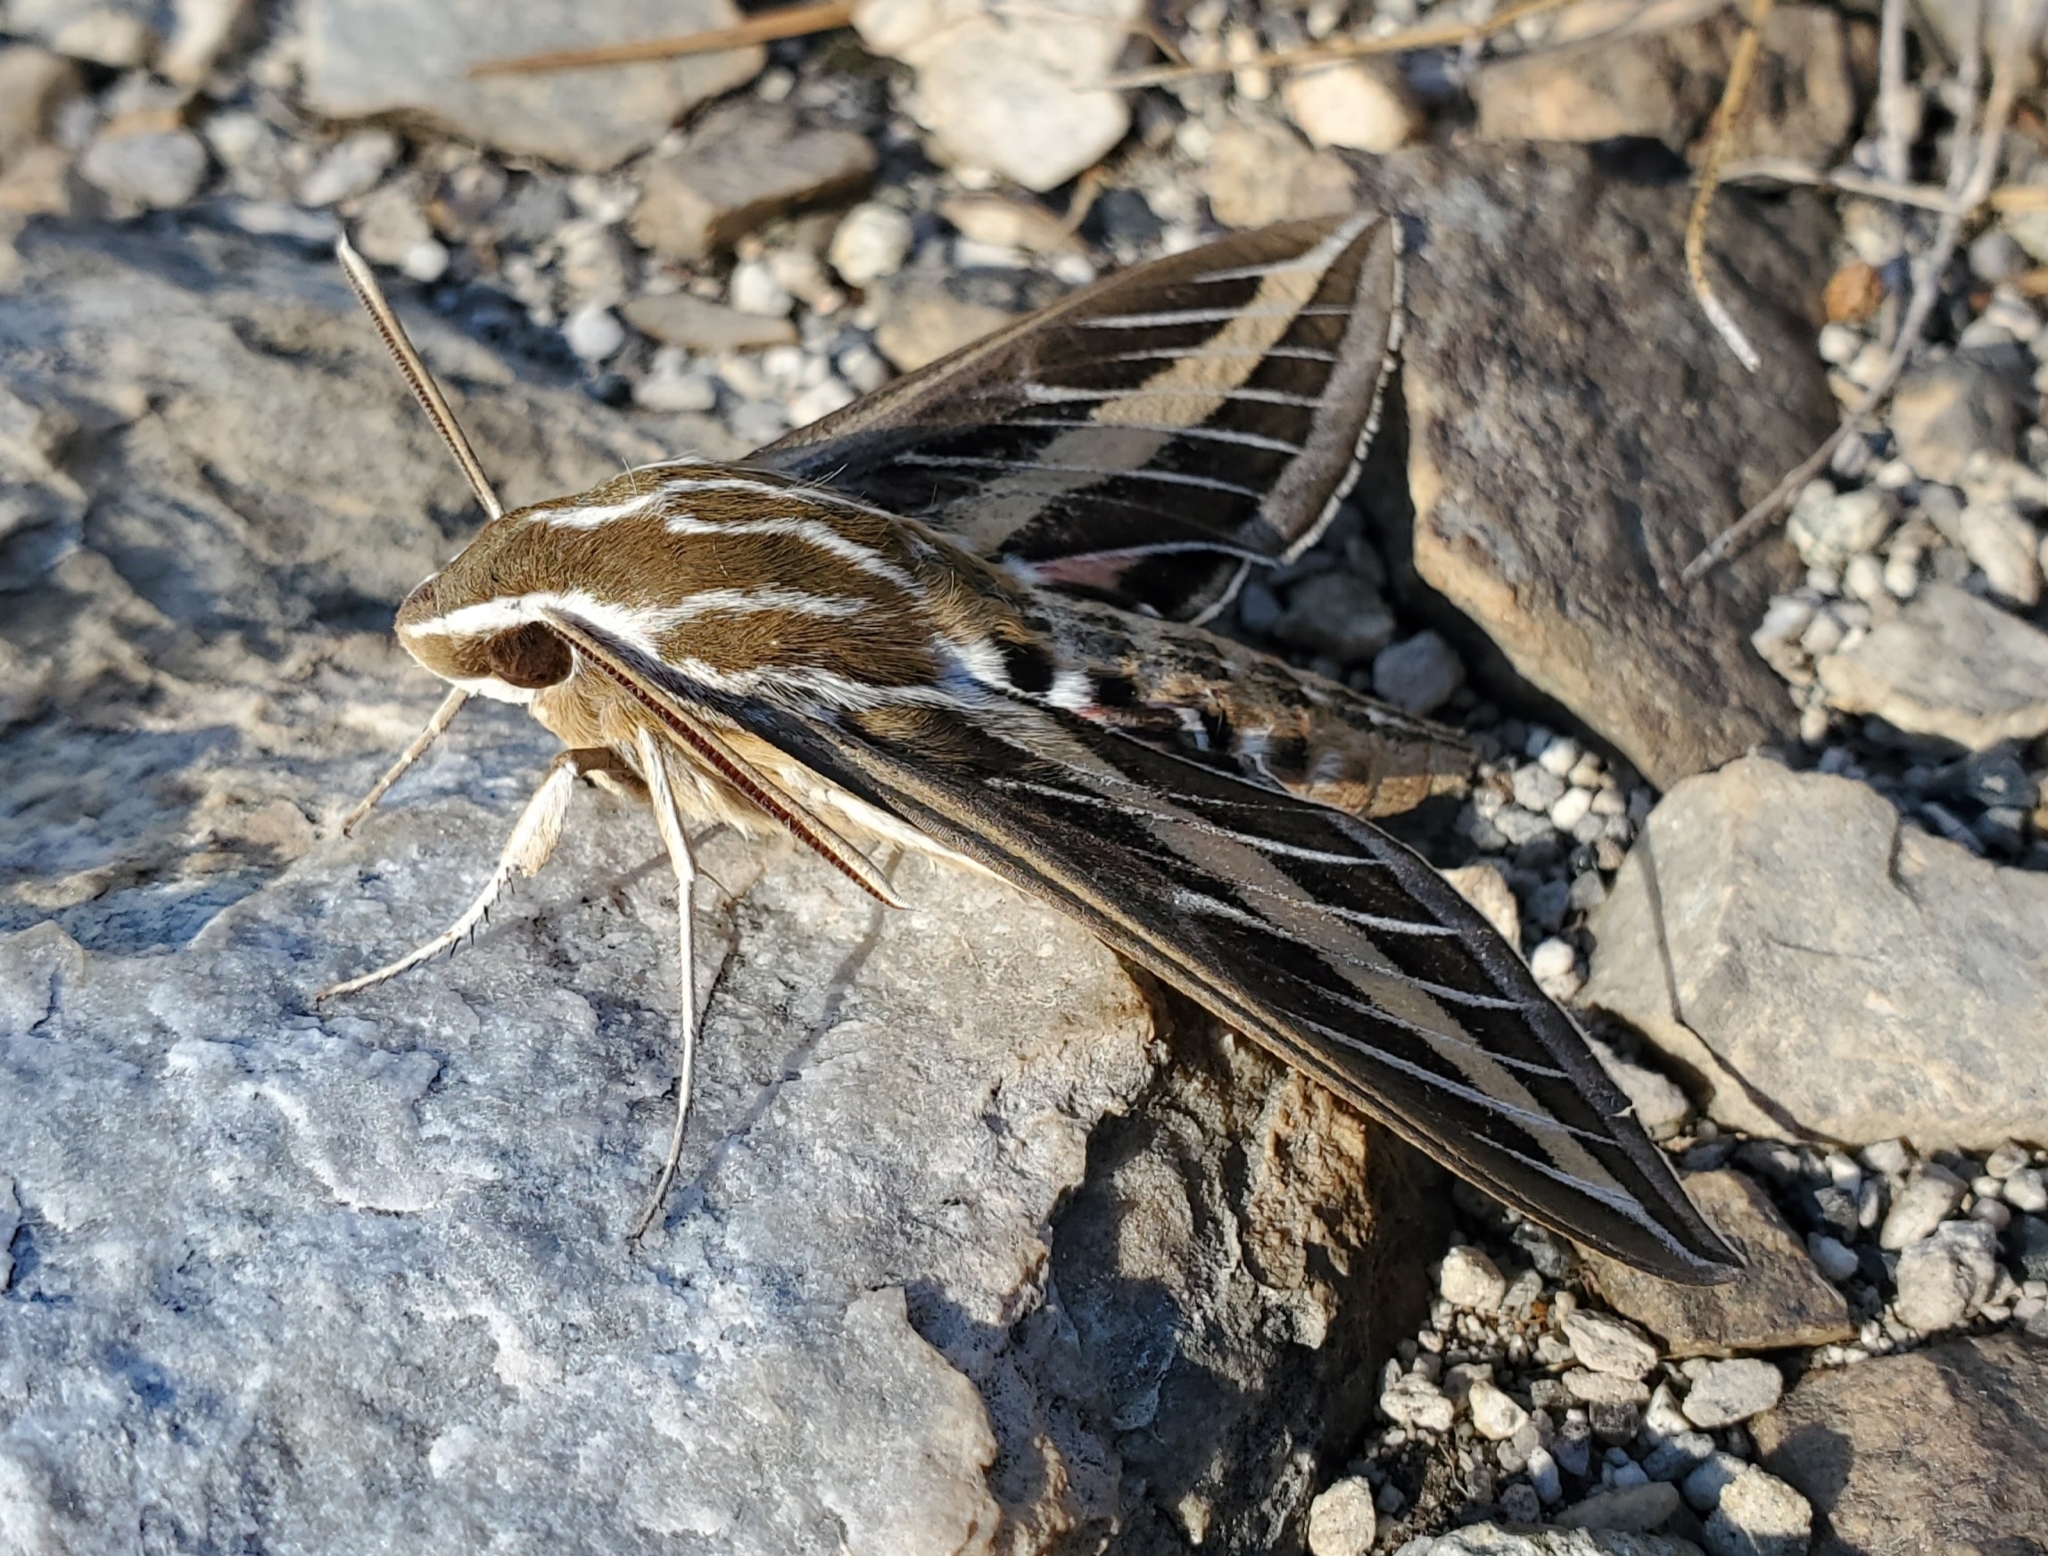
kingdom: Animalia
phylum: Arthropoda
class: Insecta
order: Lepidoptera
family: Sphingidae
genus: Hyles
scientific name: Hyles lineata
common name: White-lined sphinx
